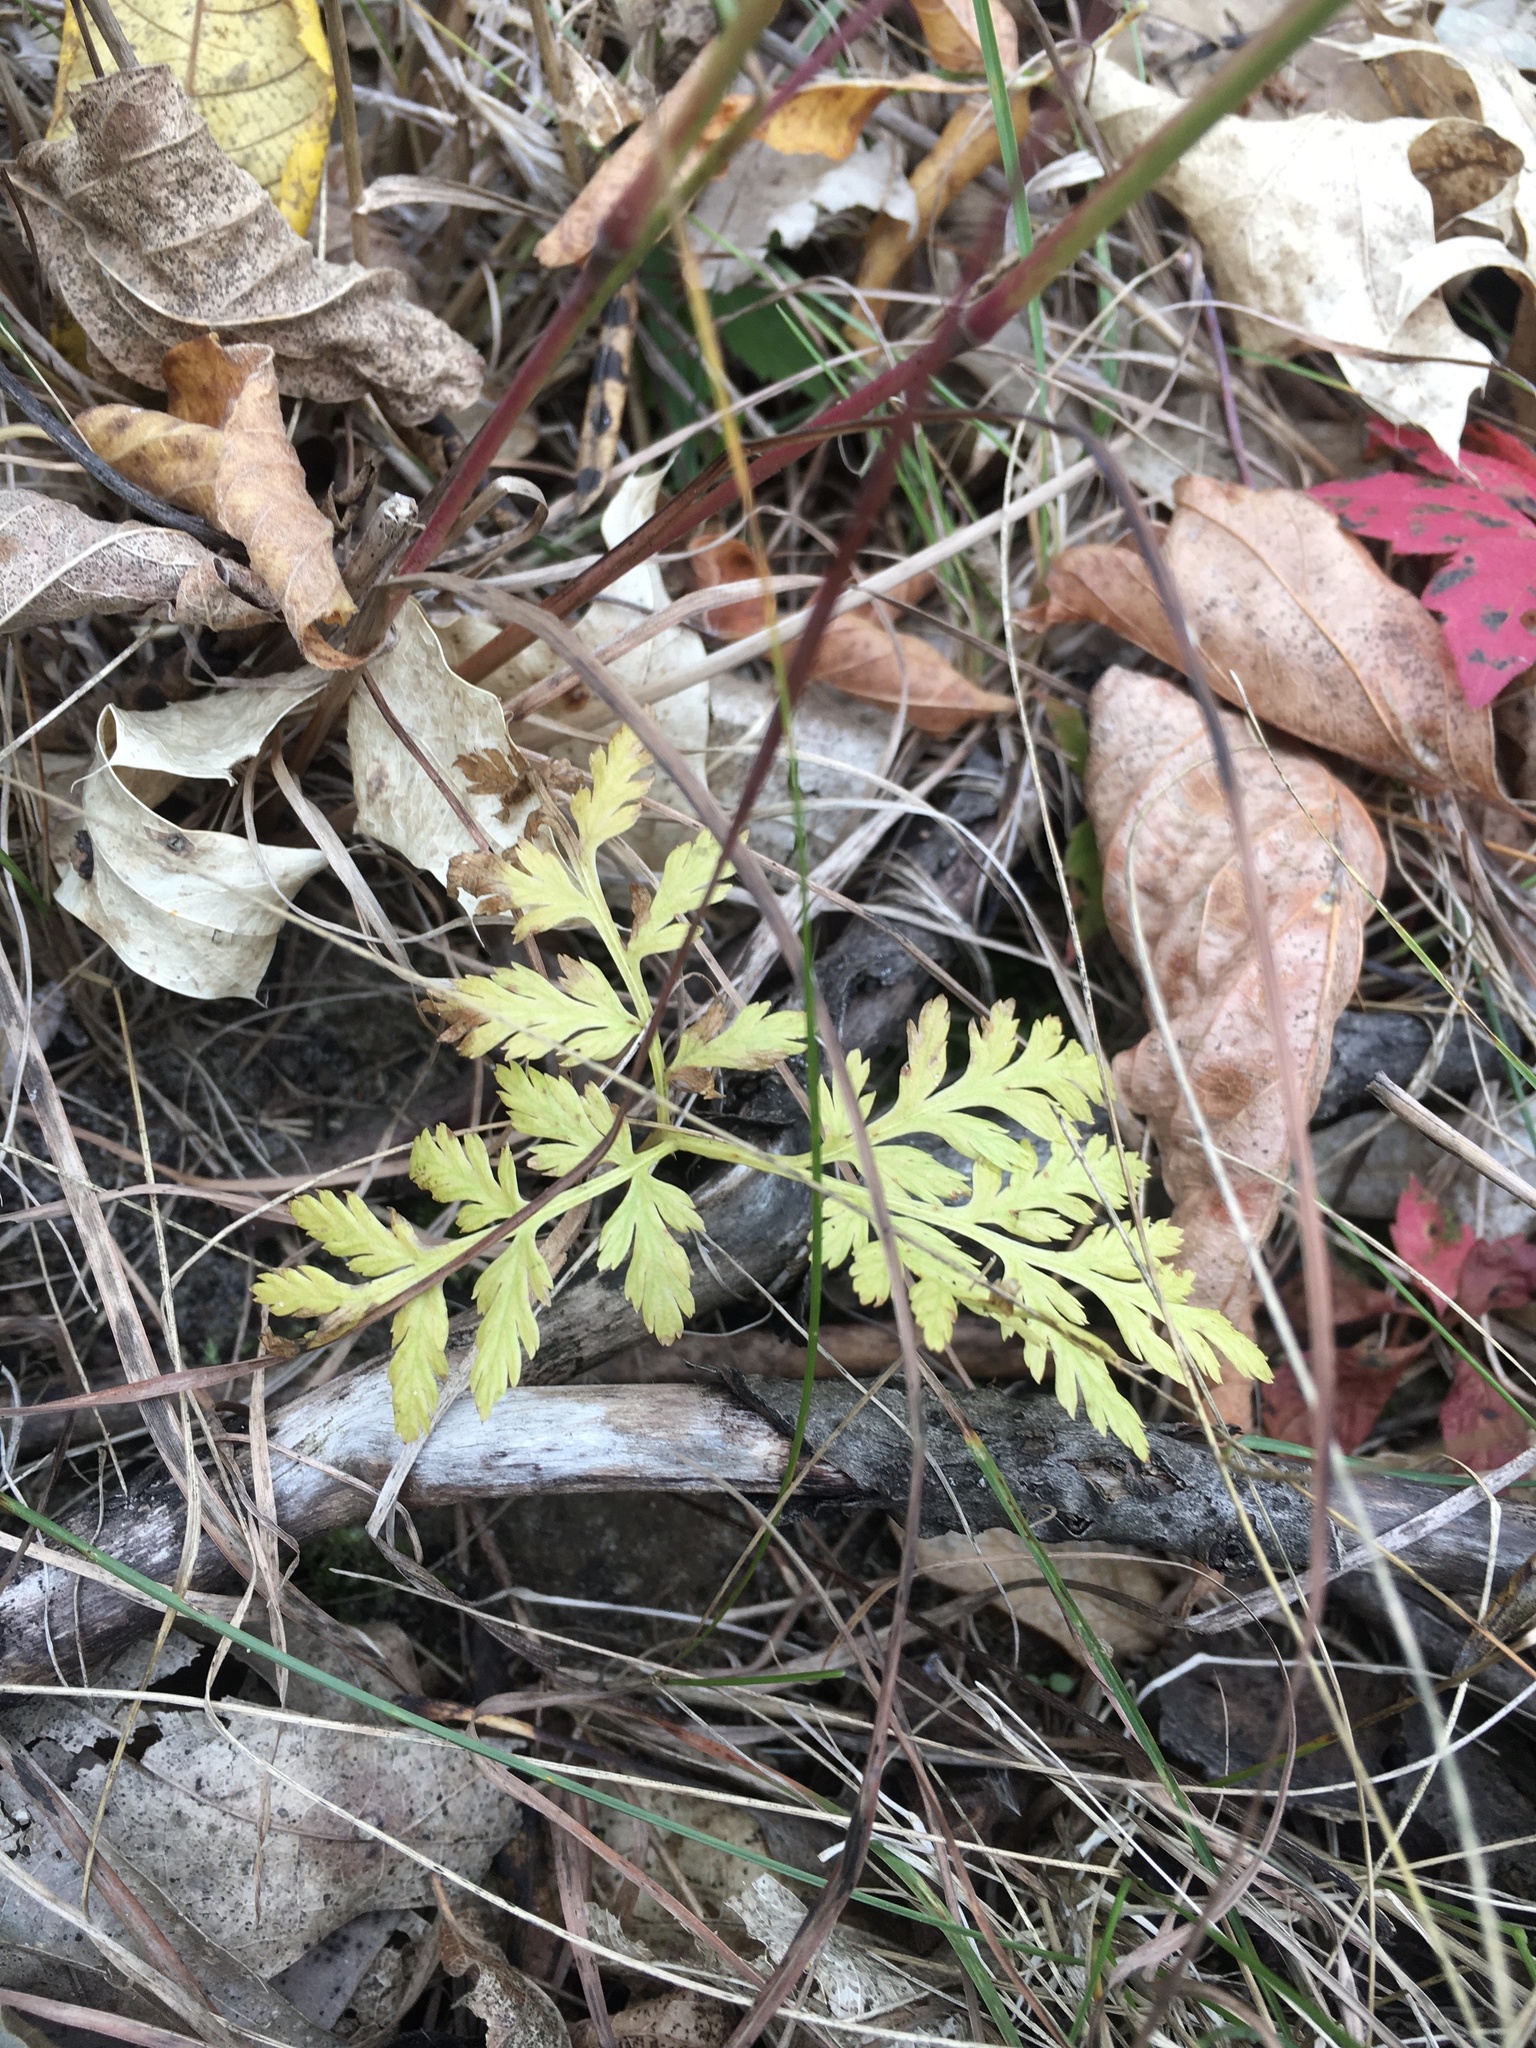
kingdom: Plantae
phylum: Tracheophyta
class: Polypodiopsida
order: Ophioglossales
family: Ophioglossaceae
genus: Botrypus
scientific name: Botrypus virginianus
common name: Common grapefern
